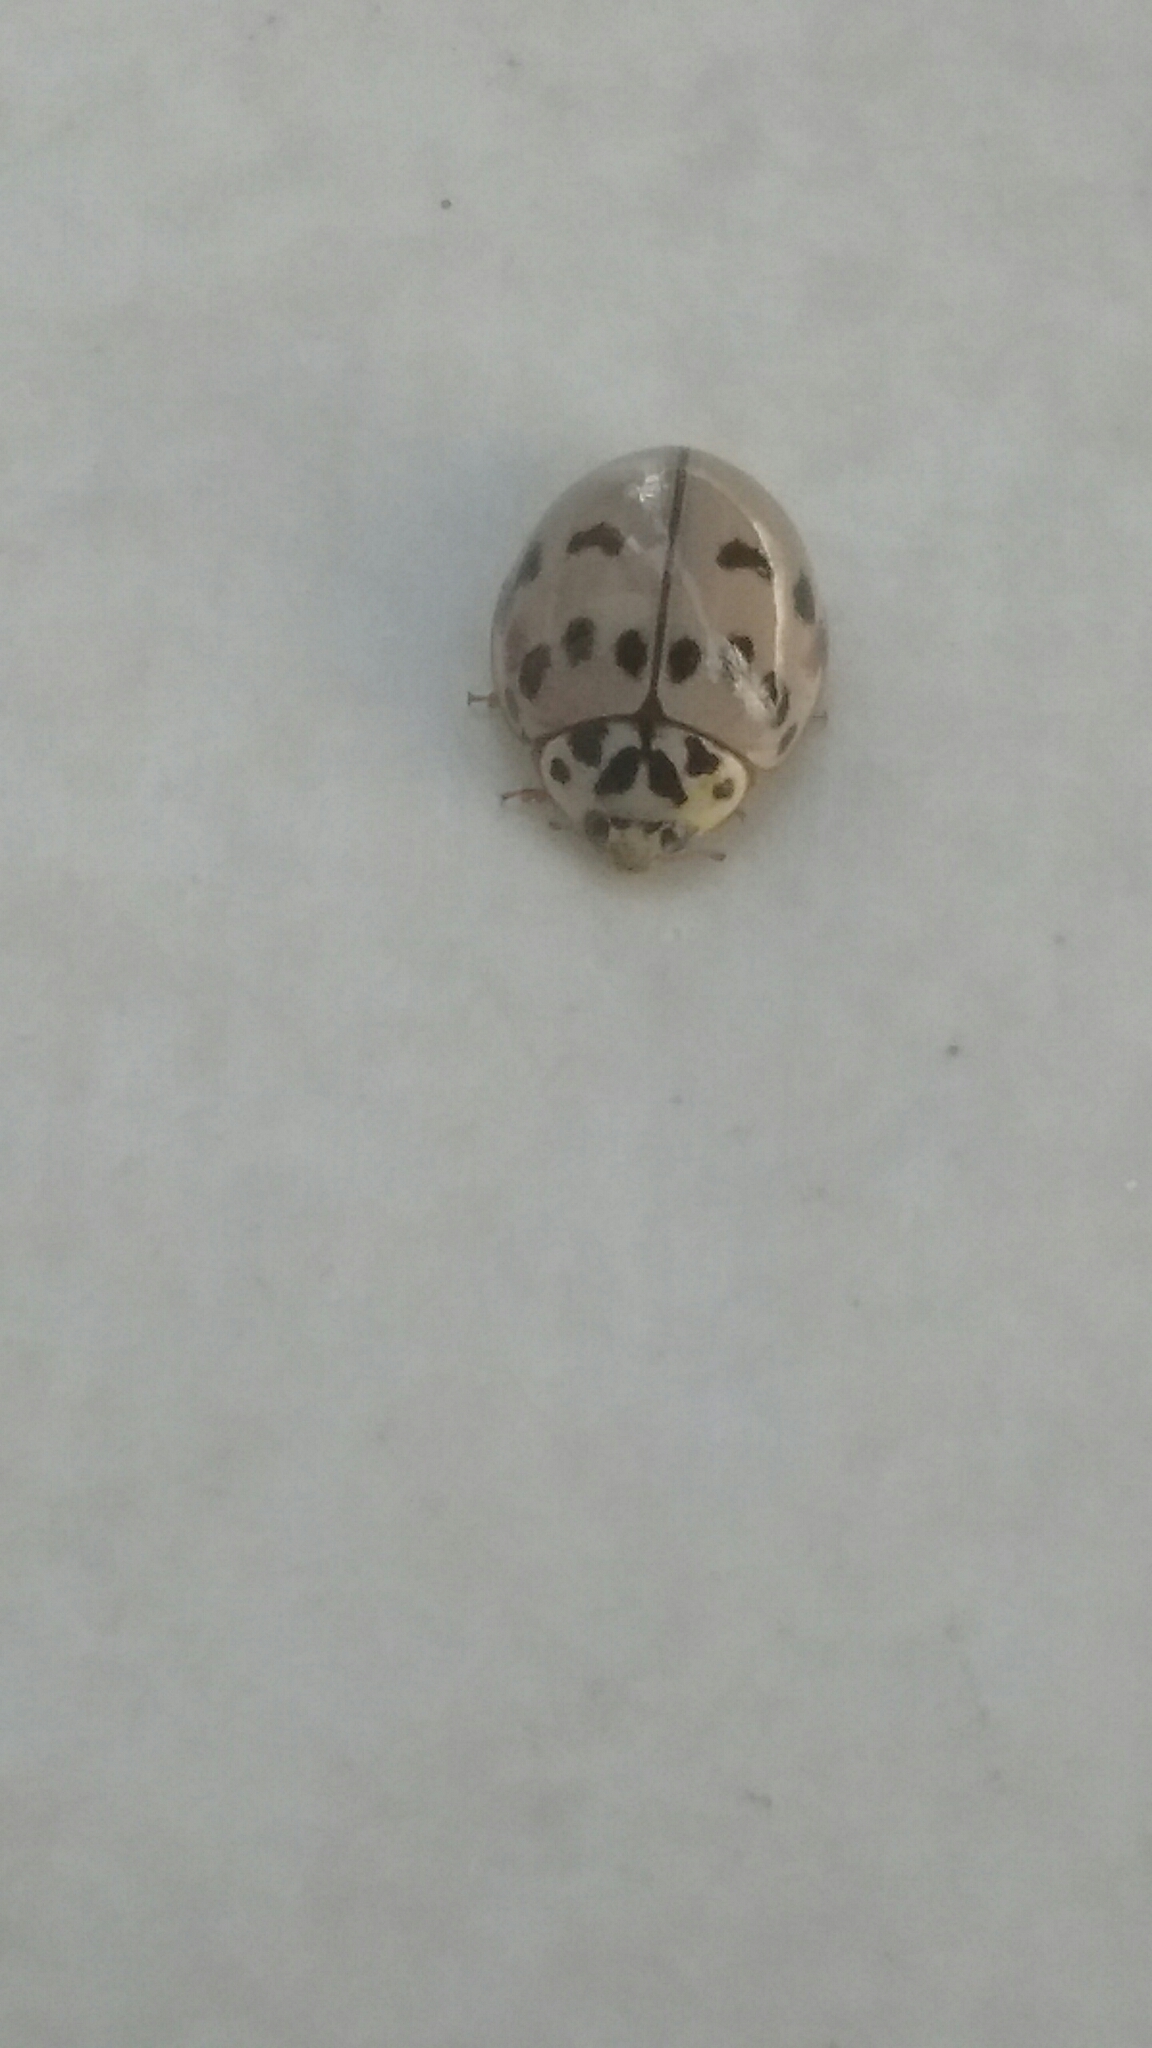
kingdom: Animalia
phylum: Arthropoda
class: Insecta
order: Coleoptera
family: Coccinellidae
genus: Olla
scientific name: Olla v-nigrum
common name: Ashy gray lady beetle
